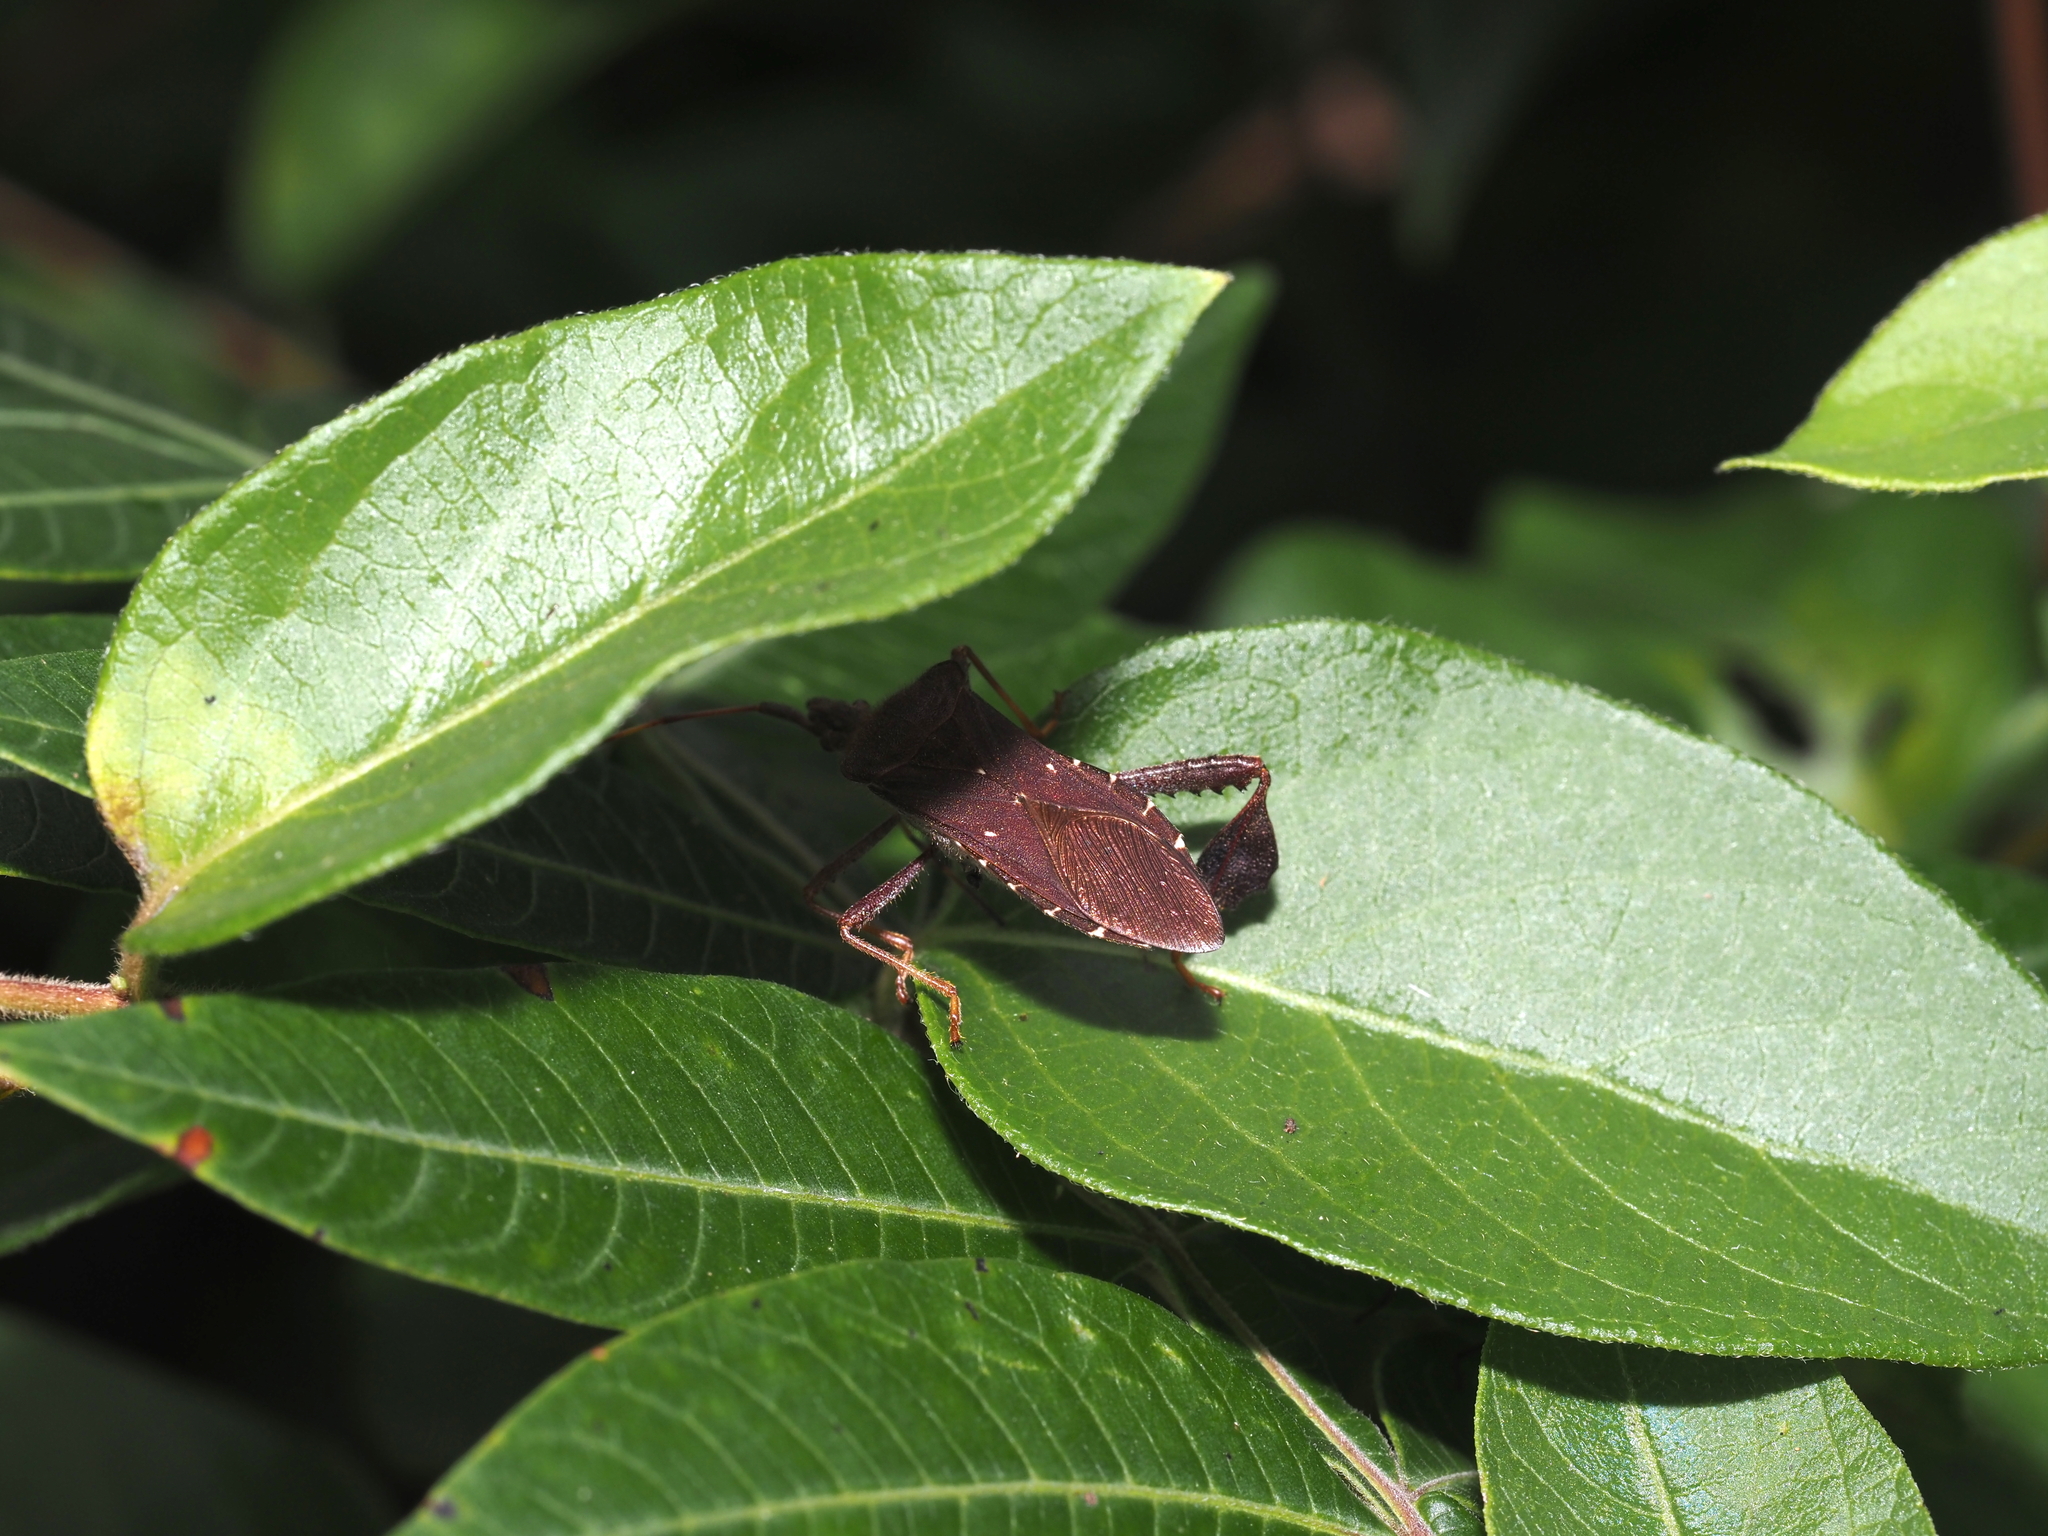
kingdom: Animalia
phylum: Arthropoda
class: Insecta
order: Hemiptera
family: Coreidae
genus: Leptoglossus
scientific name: Leptoglossus oppositus
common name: Northern leaf-footed bug
